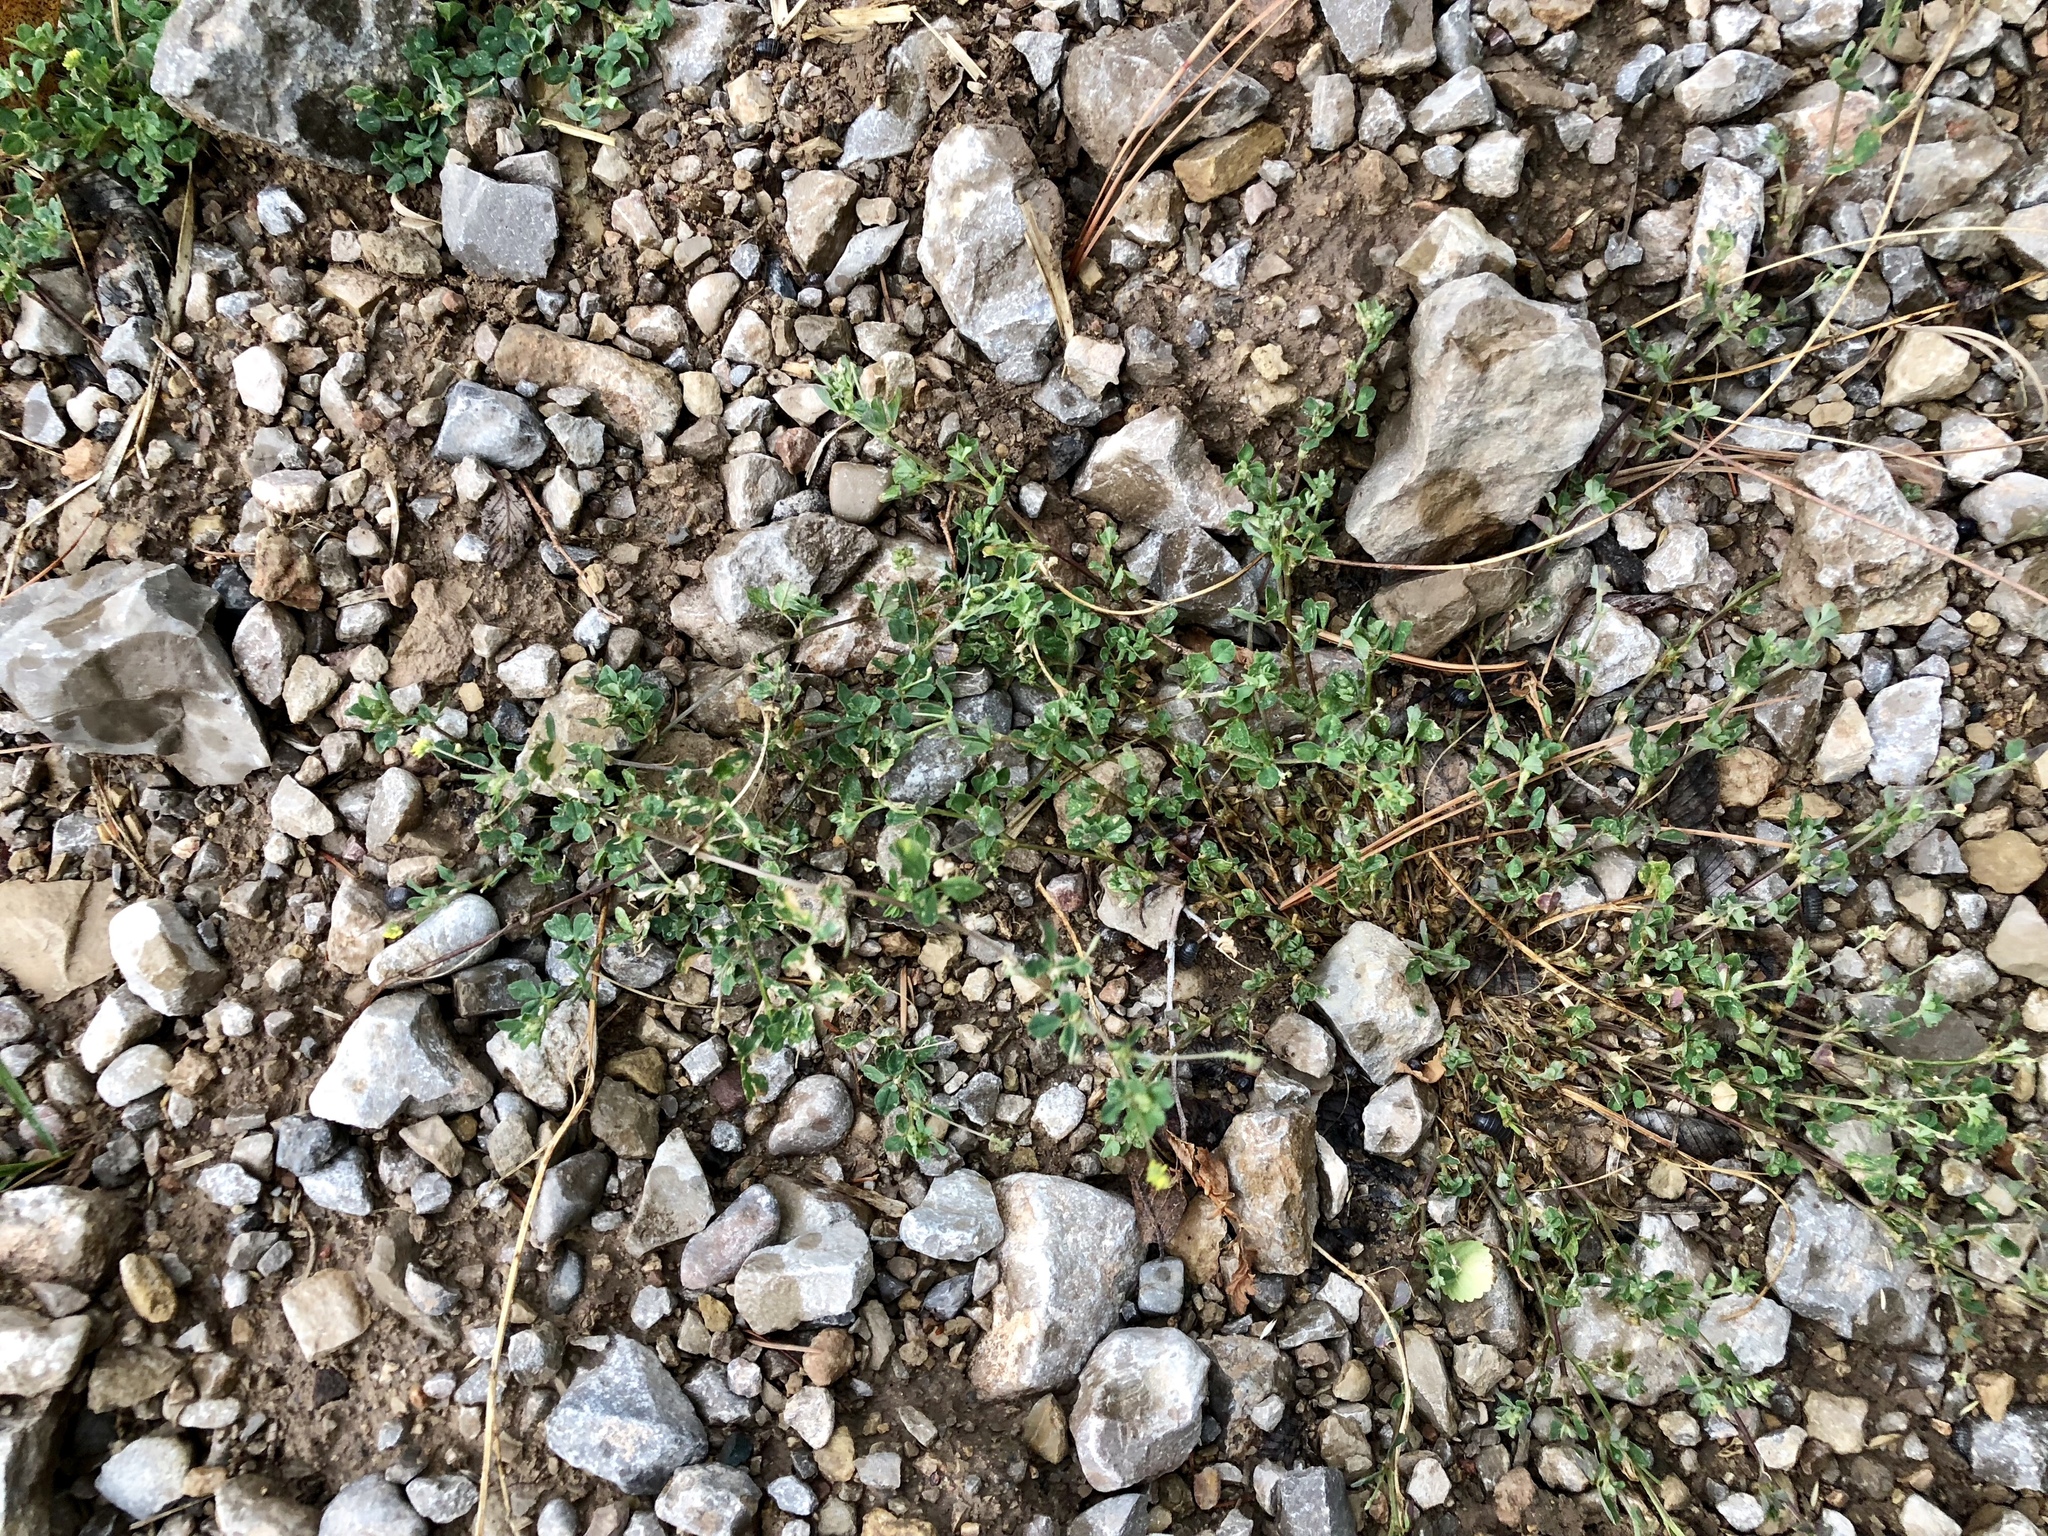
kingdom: Plantae
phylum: Tracheophyta
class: Magnoliopsida
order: Fabales
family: Fabaceae
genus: Medicago
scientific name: Medicago lupulina
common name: Black medick
